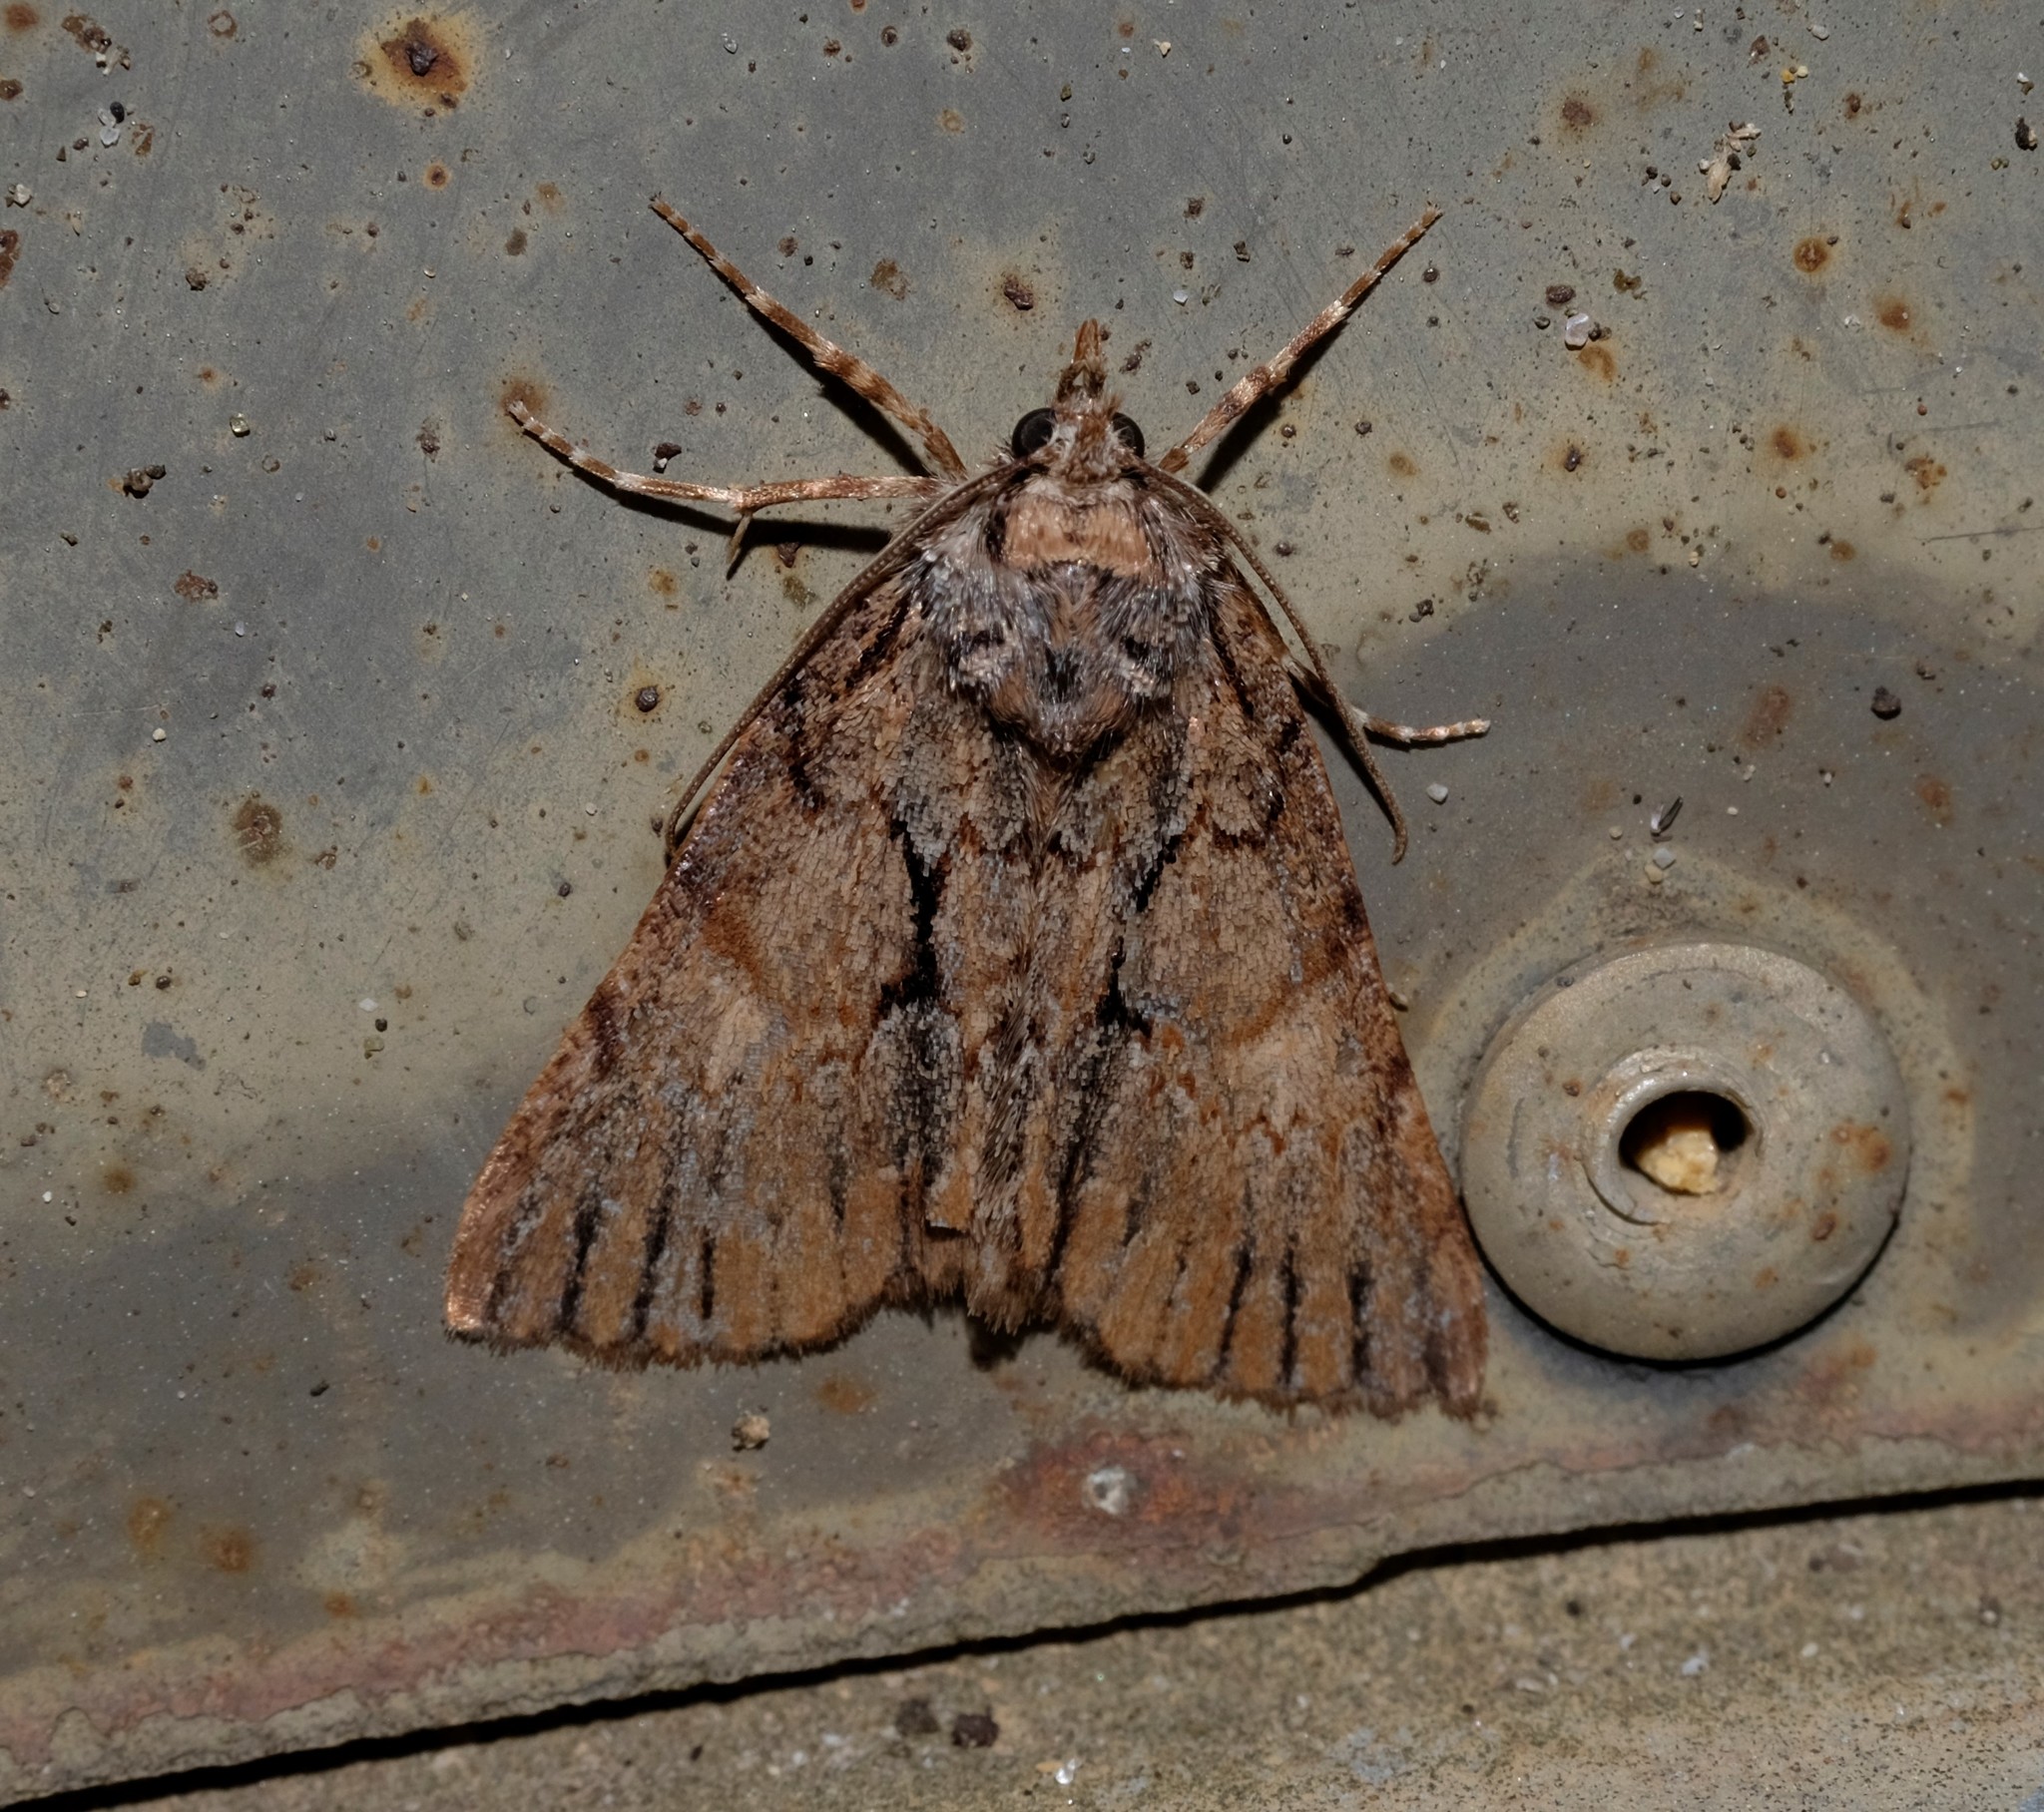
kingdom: Animalia
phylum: Arthropoda
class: Insecta
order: Lepidoptera
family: Geometridae
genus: Smyriodes
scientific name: Smyriodes
